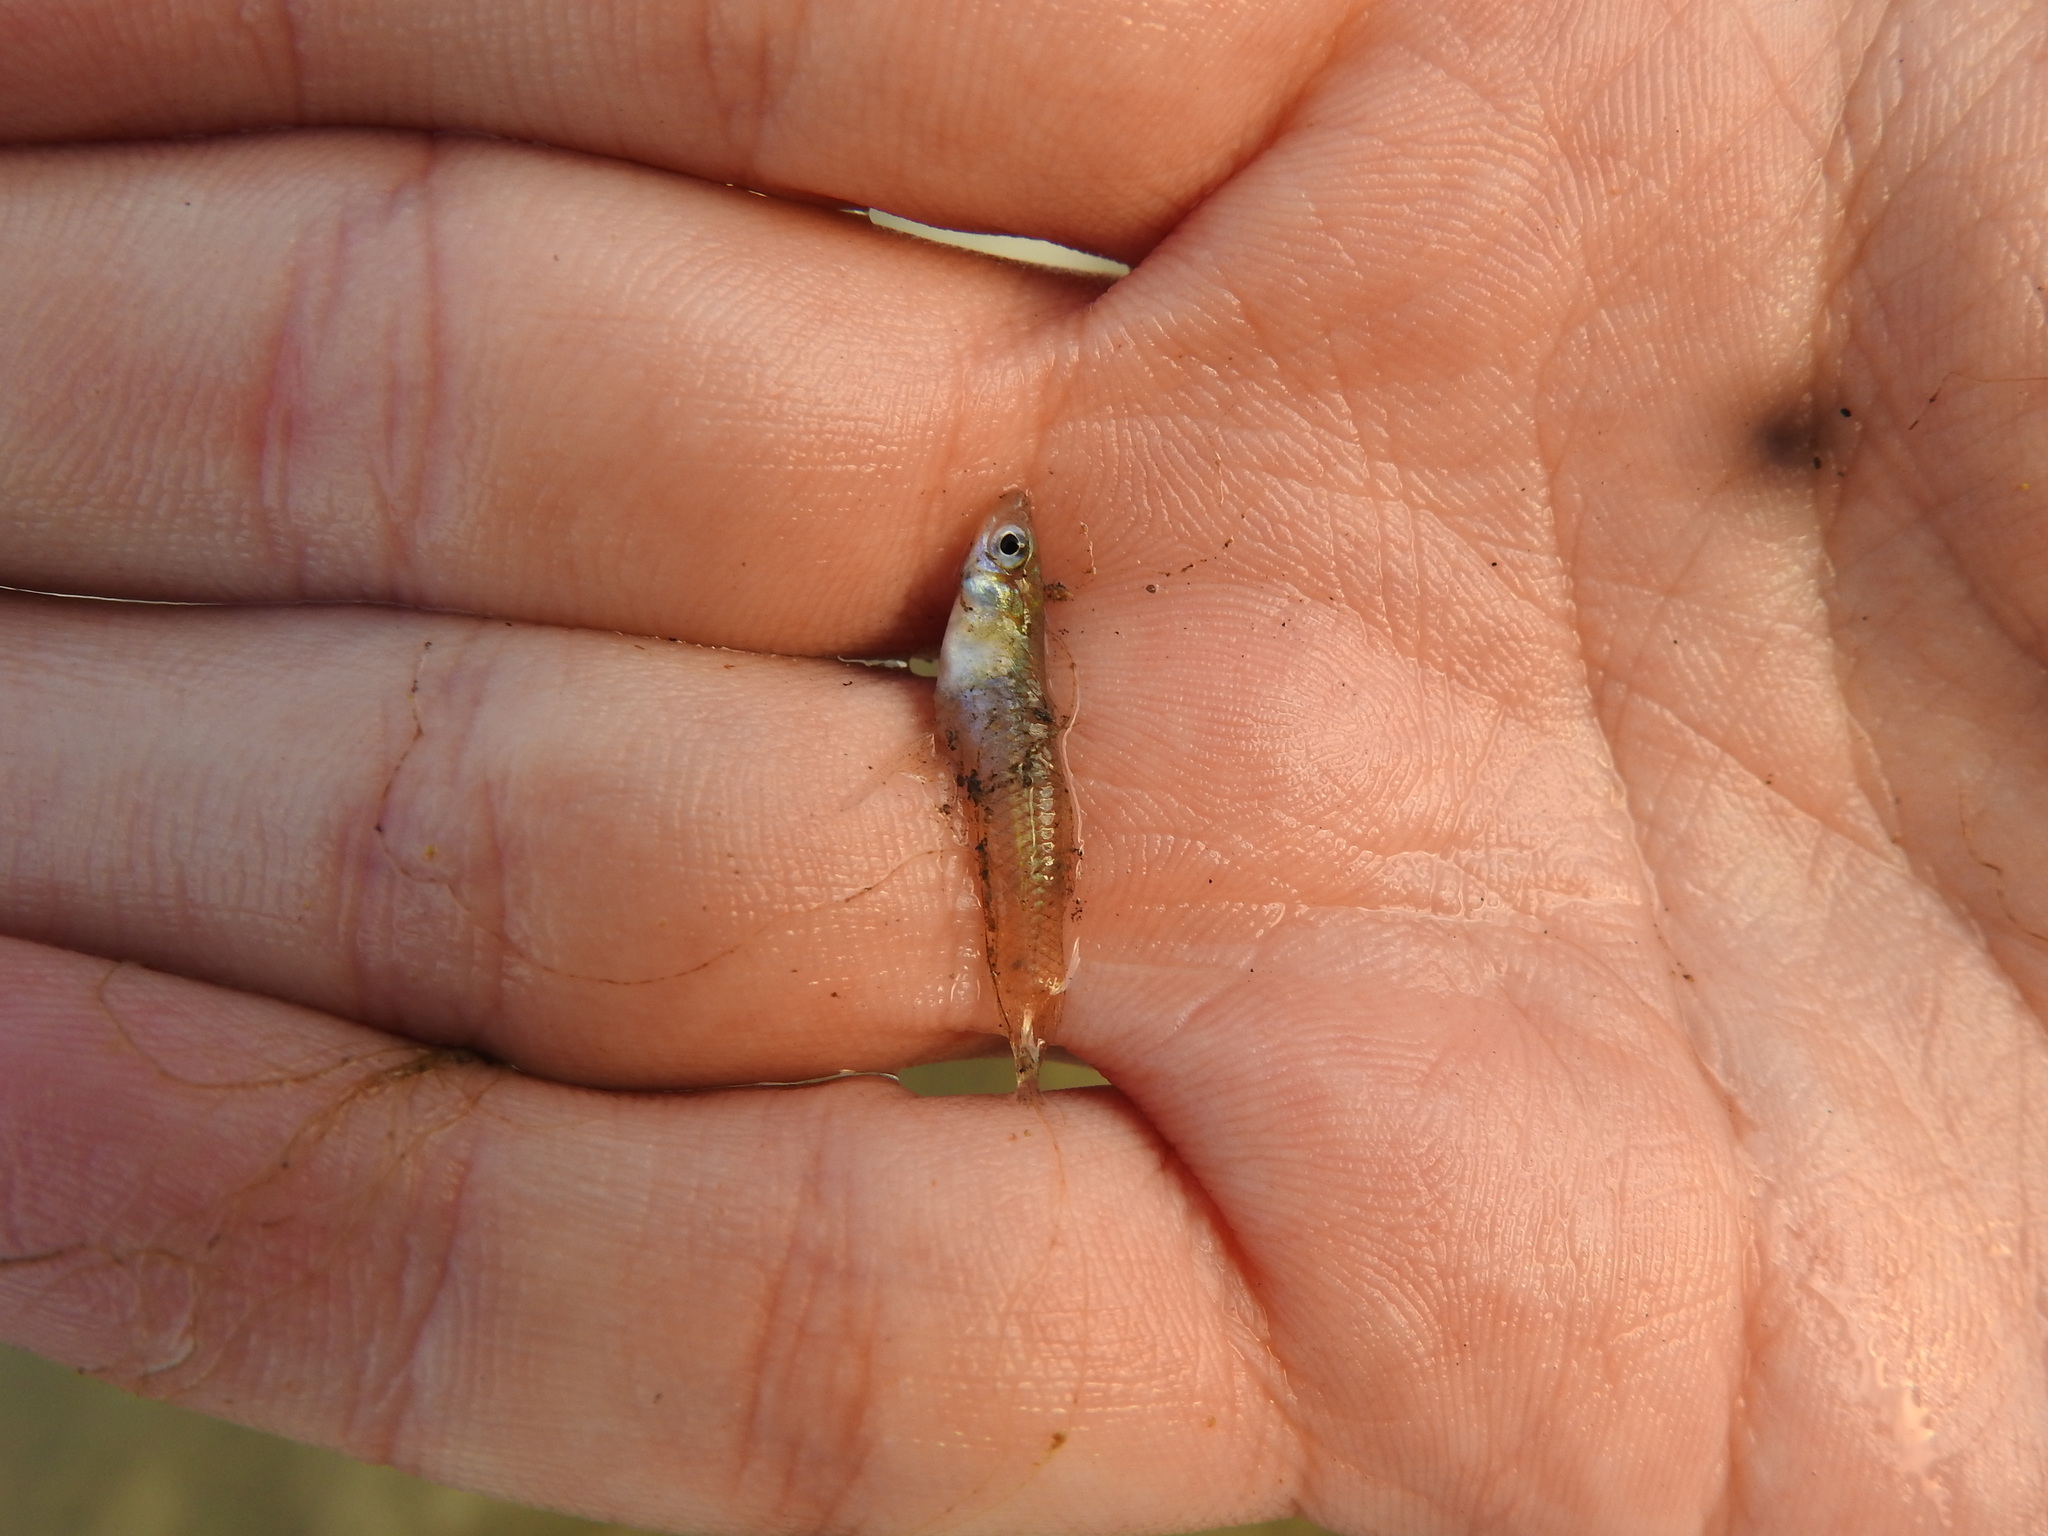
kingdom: Animalia
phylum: Chordata
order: Cyprinodontiformes
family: Poeciliidae
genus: Gambusia
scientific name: Gambusia holbrooki
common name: Eastern mosquitofish
